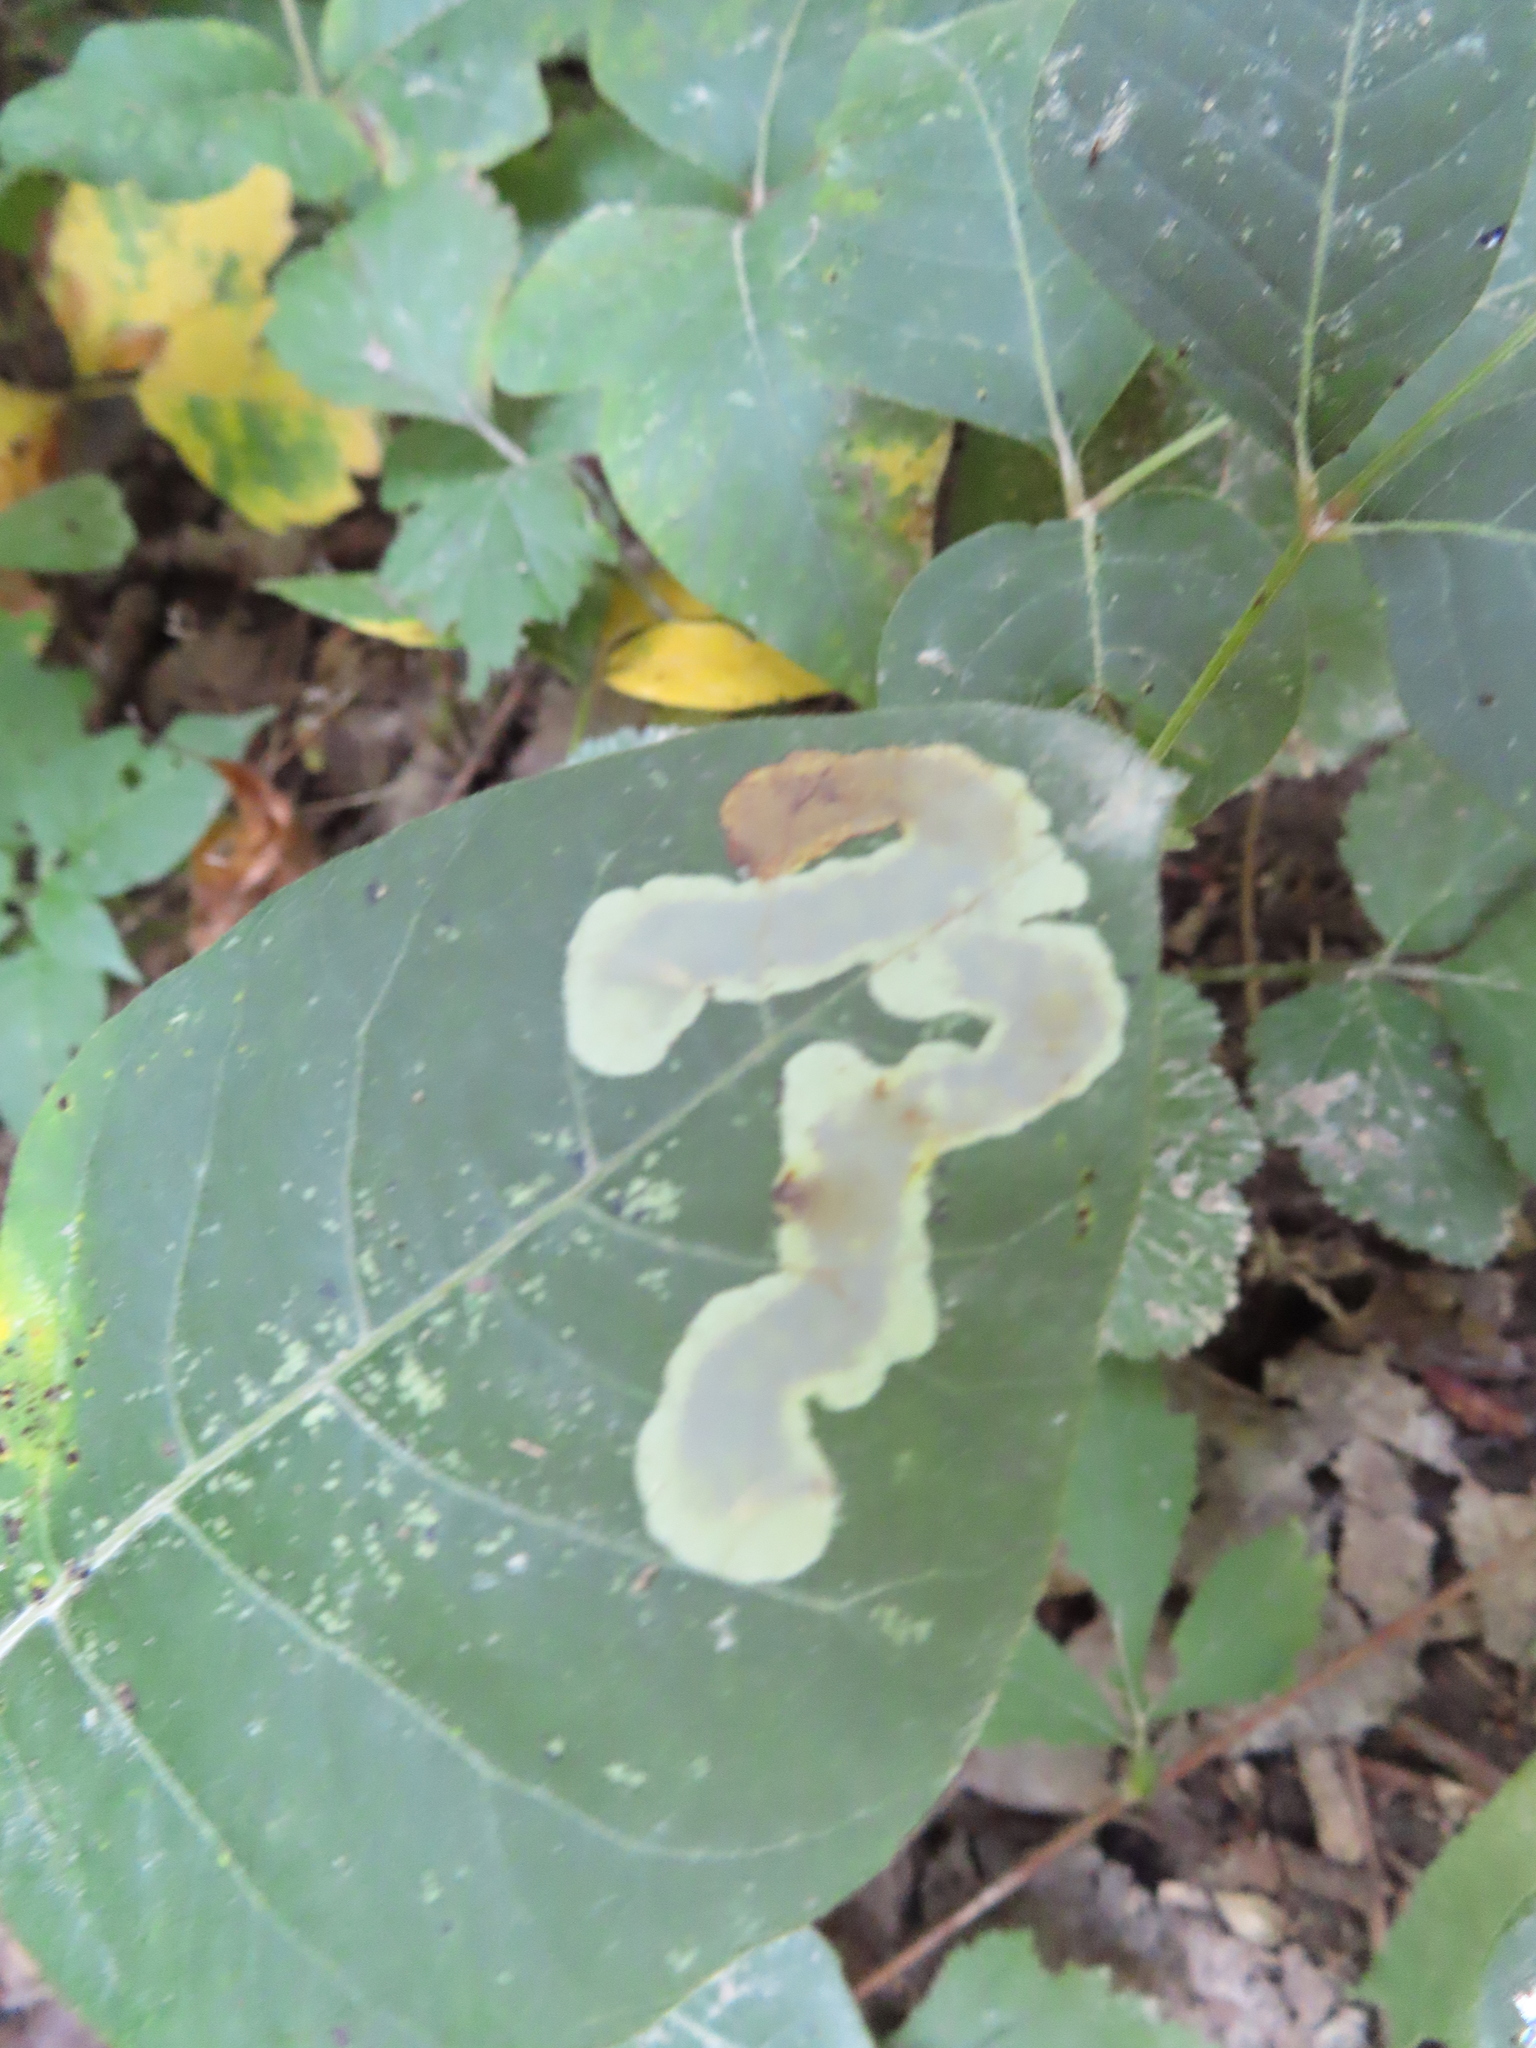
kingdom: Animalia
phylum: Arthropoda
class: Insecta
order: Lepidoptera
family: Gracillariidae
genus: Cameraria
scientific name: Cameraria guttifinitella
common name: Poison ivy leaf-miner moth
